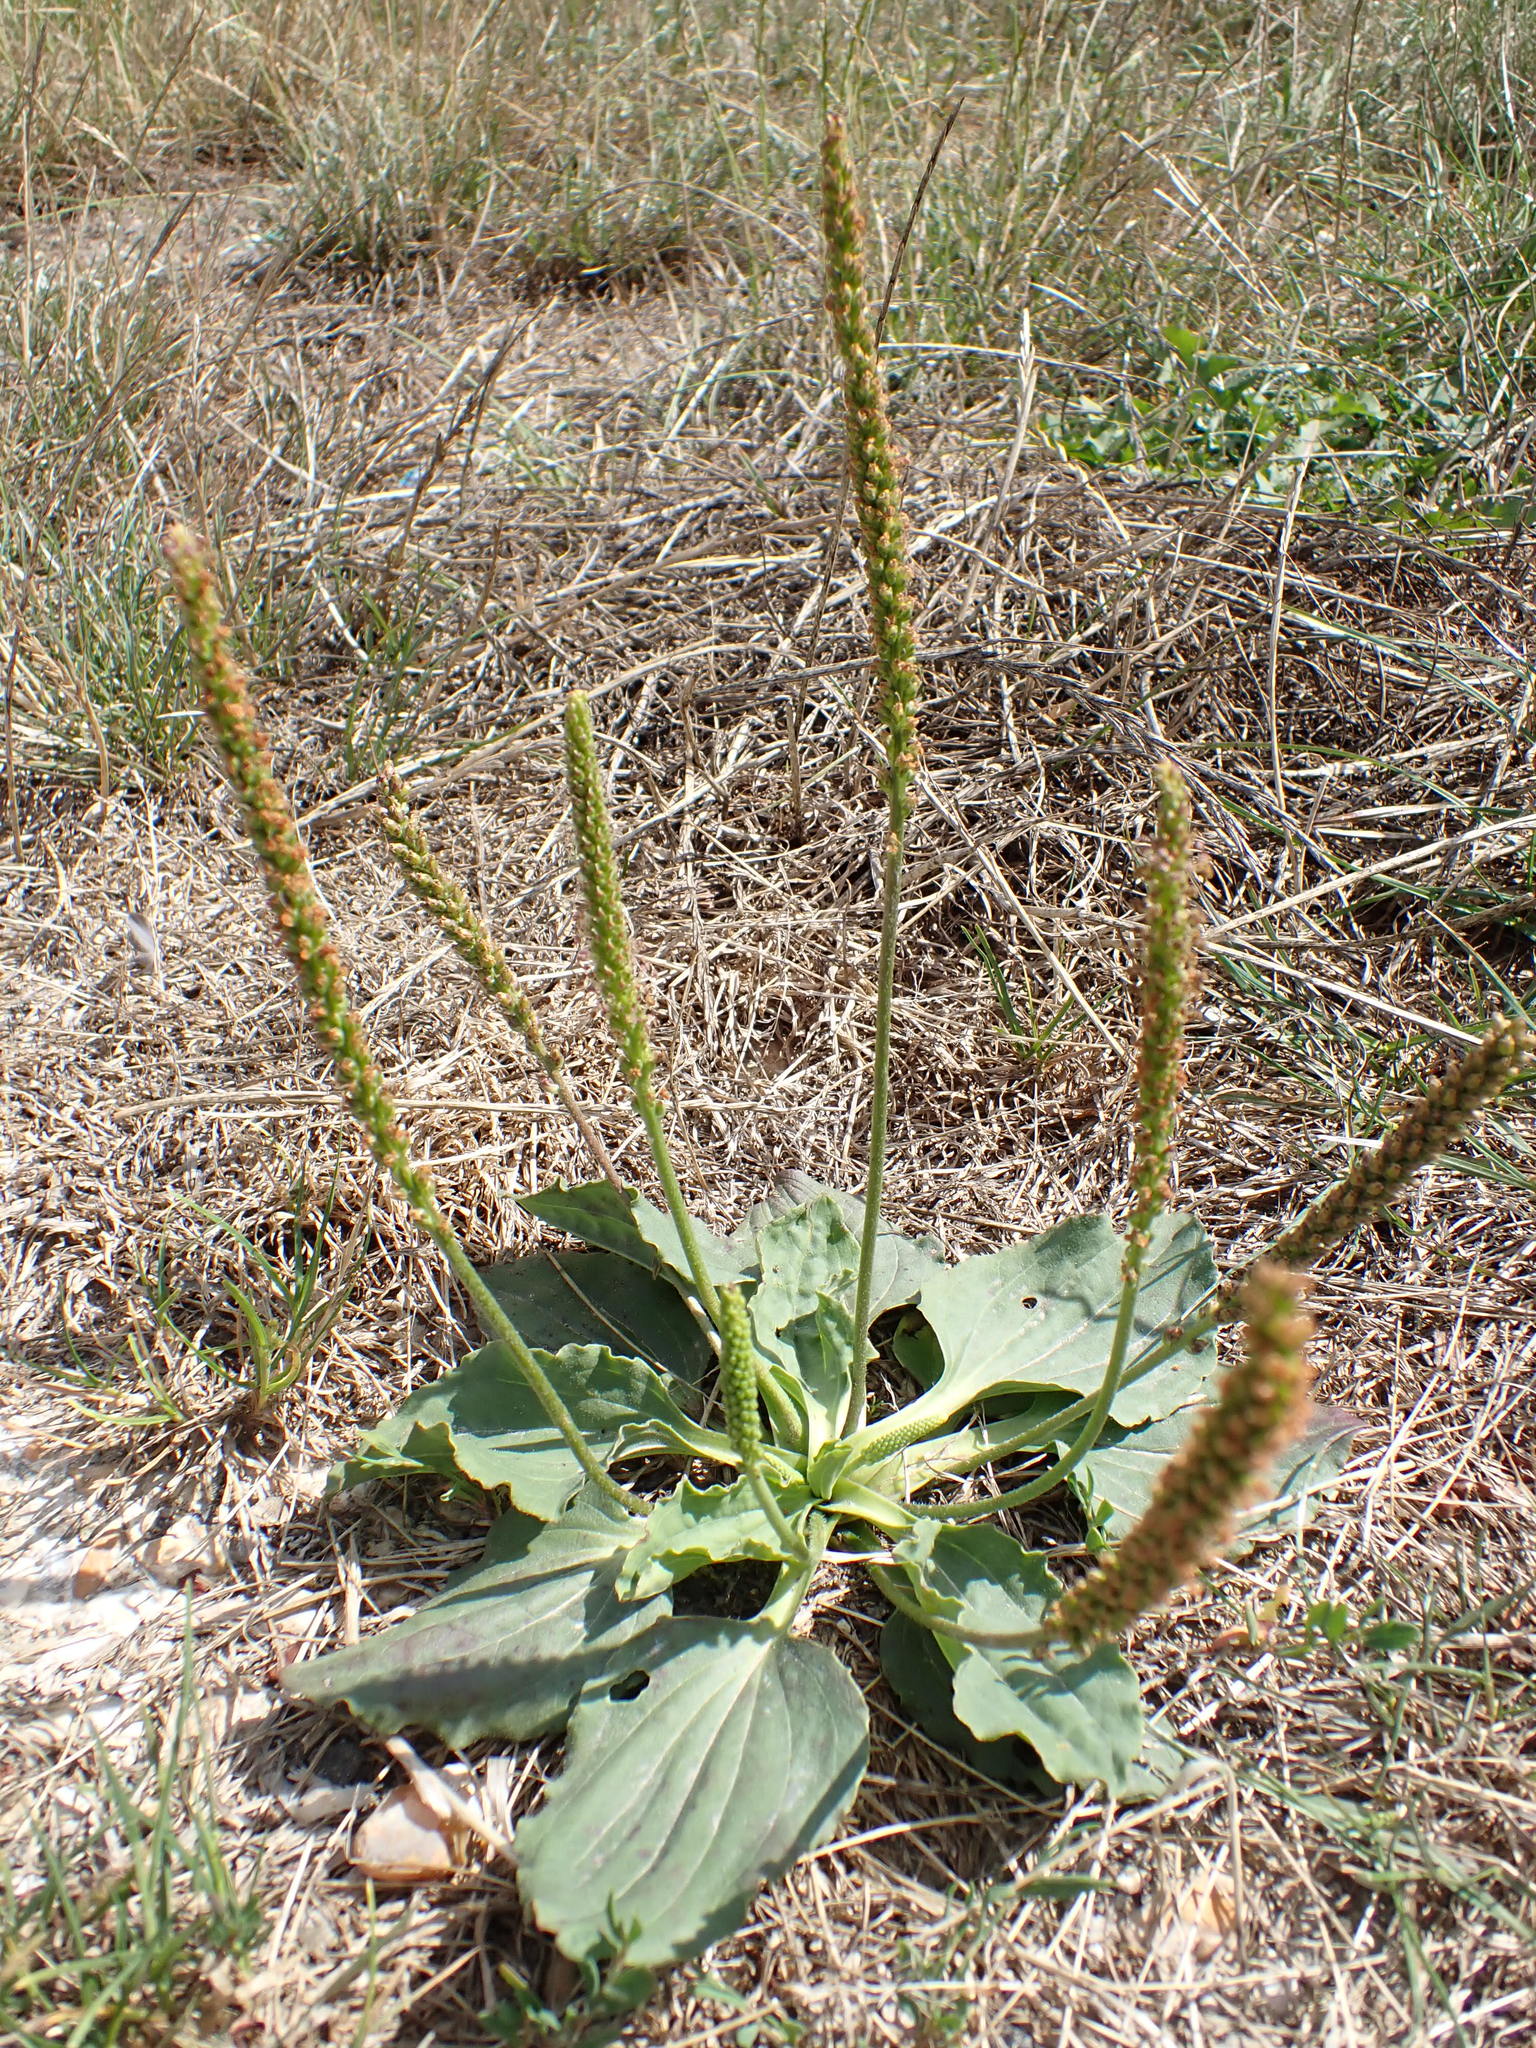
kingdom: Plantae
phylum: Tracheophyta
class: Magnoliopsida
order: Lamiales
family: Plantaginaceae
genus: Plantago
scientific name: Plantago major
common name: Common plantain
